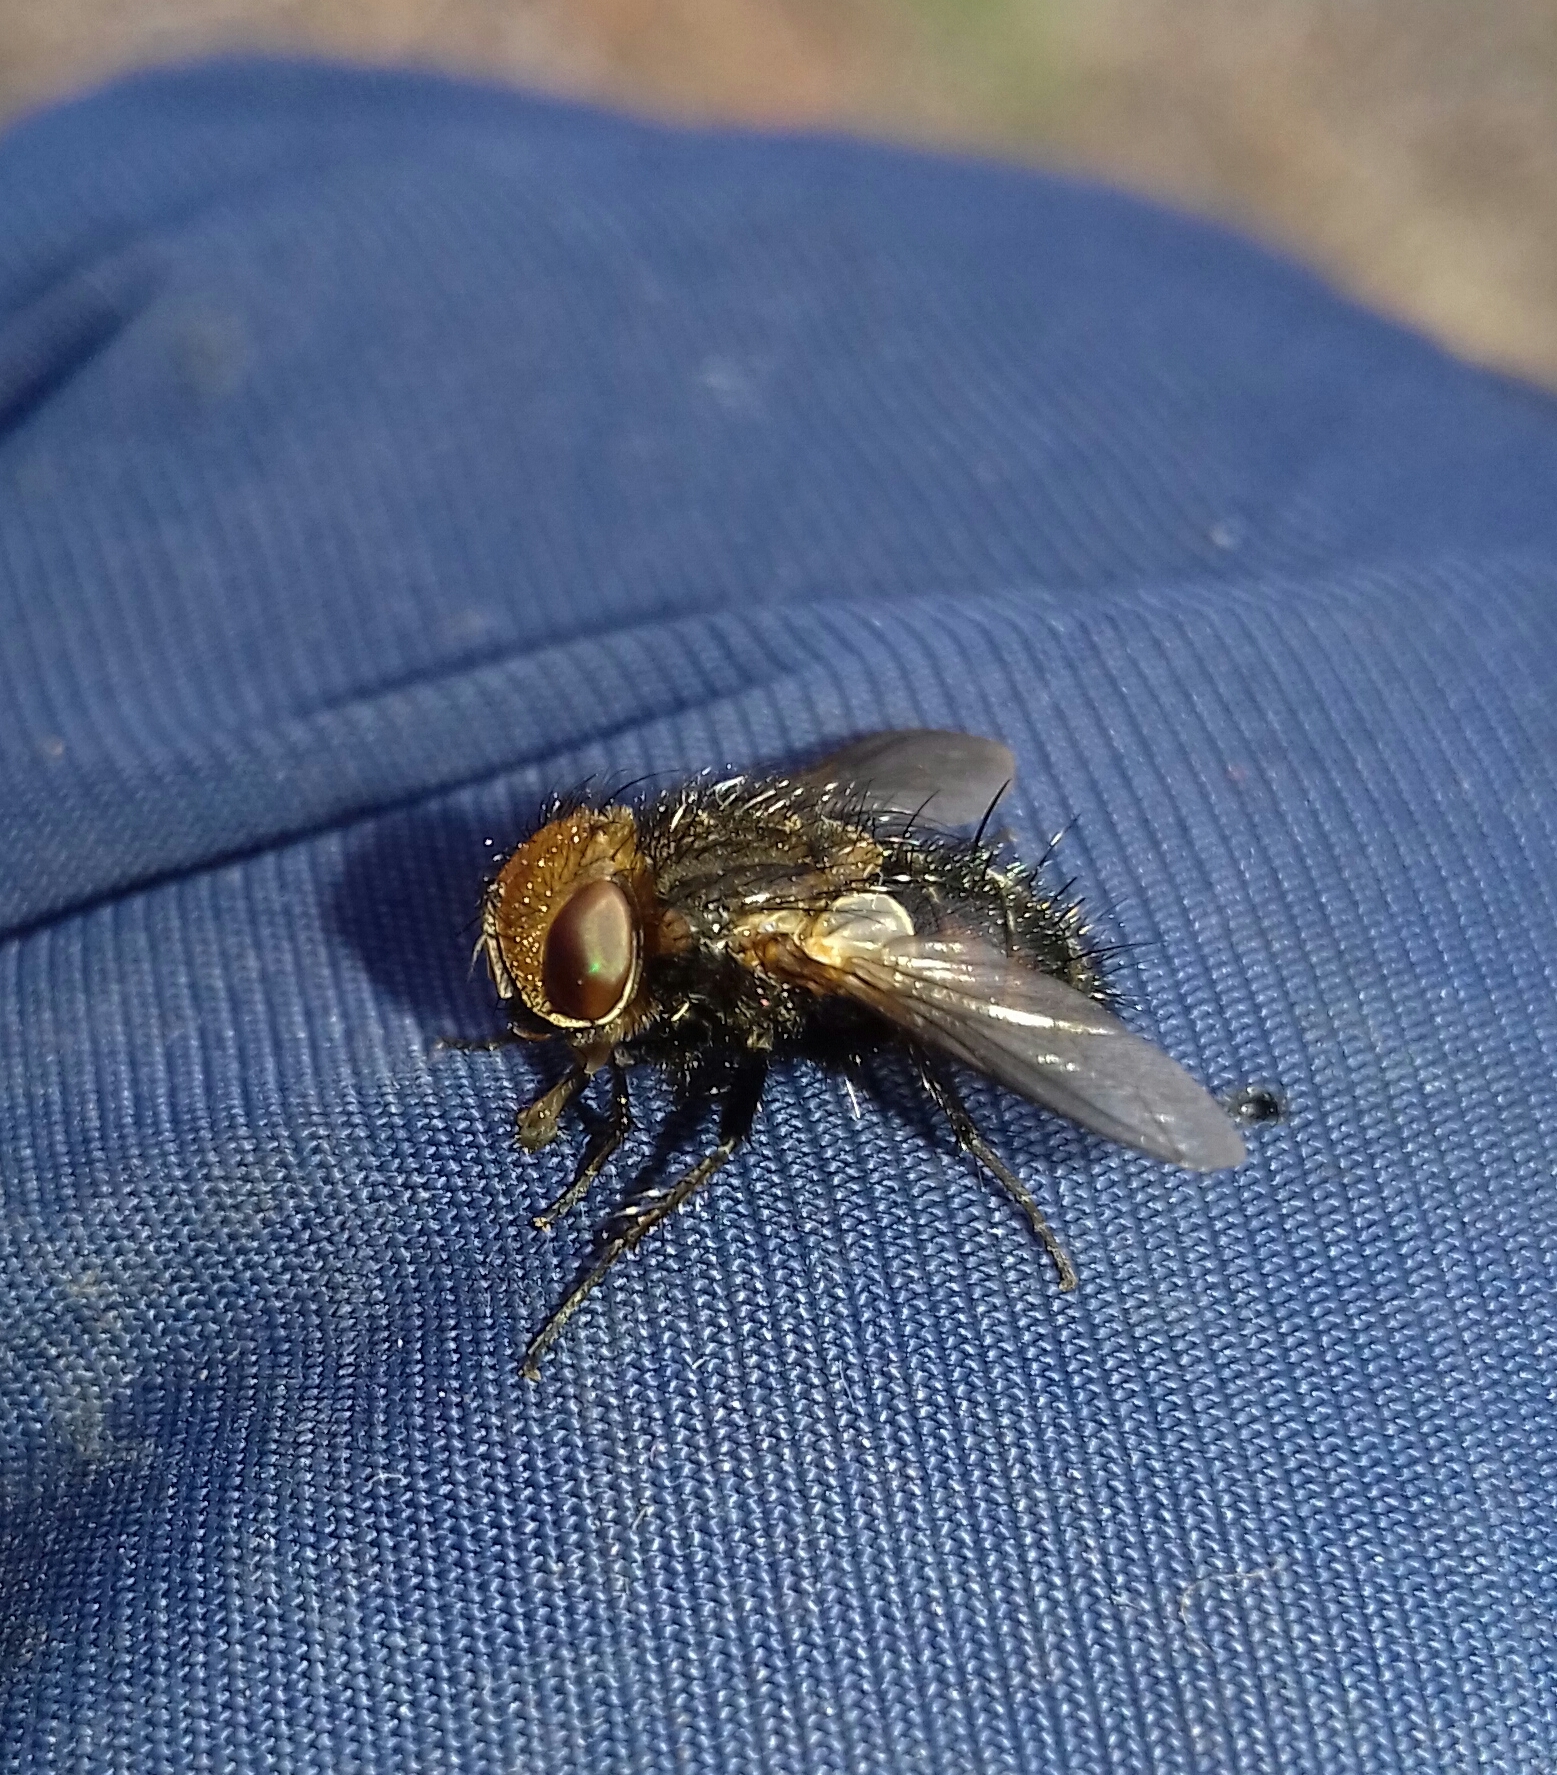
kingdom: Animalia
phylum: Arthropoda
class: Insecta
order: Diptera
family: Tachinidae
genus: Gonia
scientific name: Gonia picea
